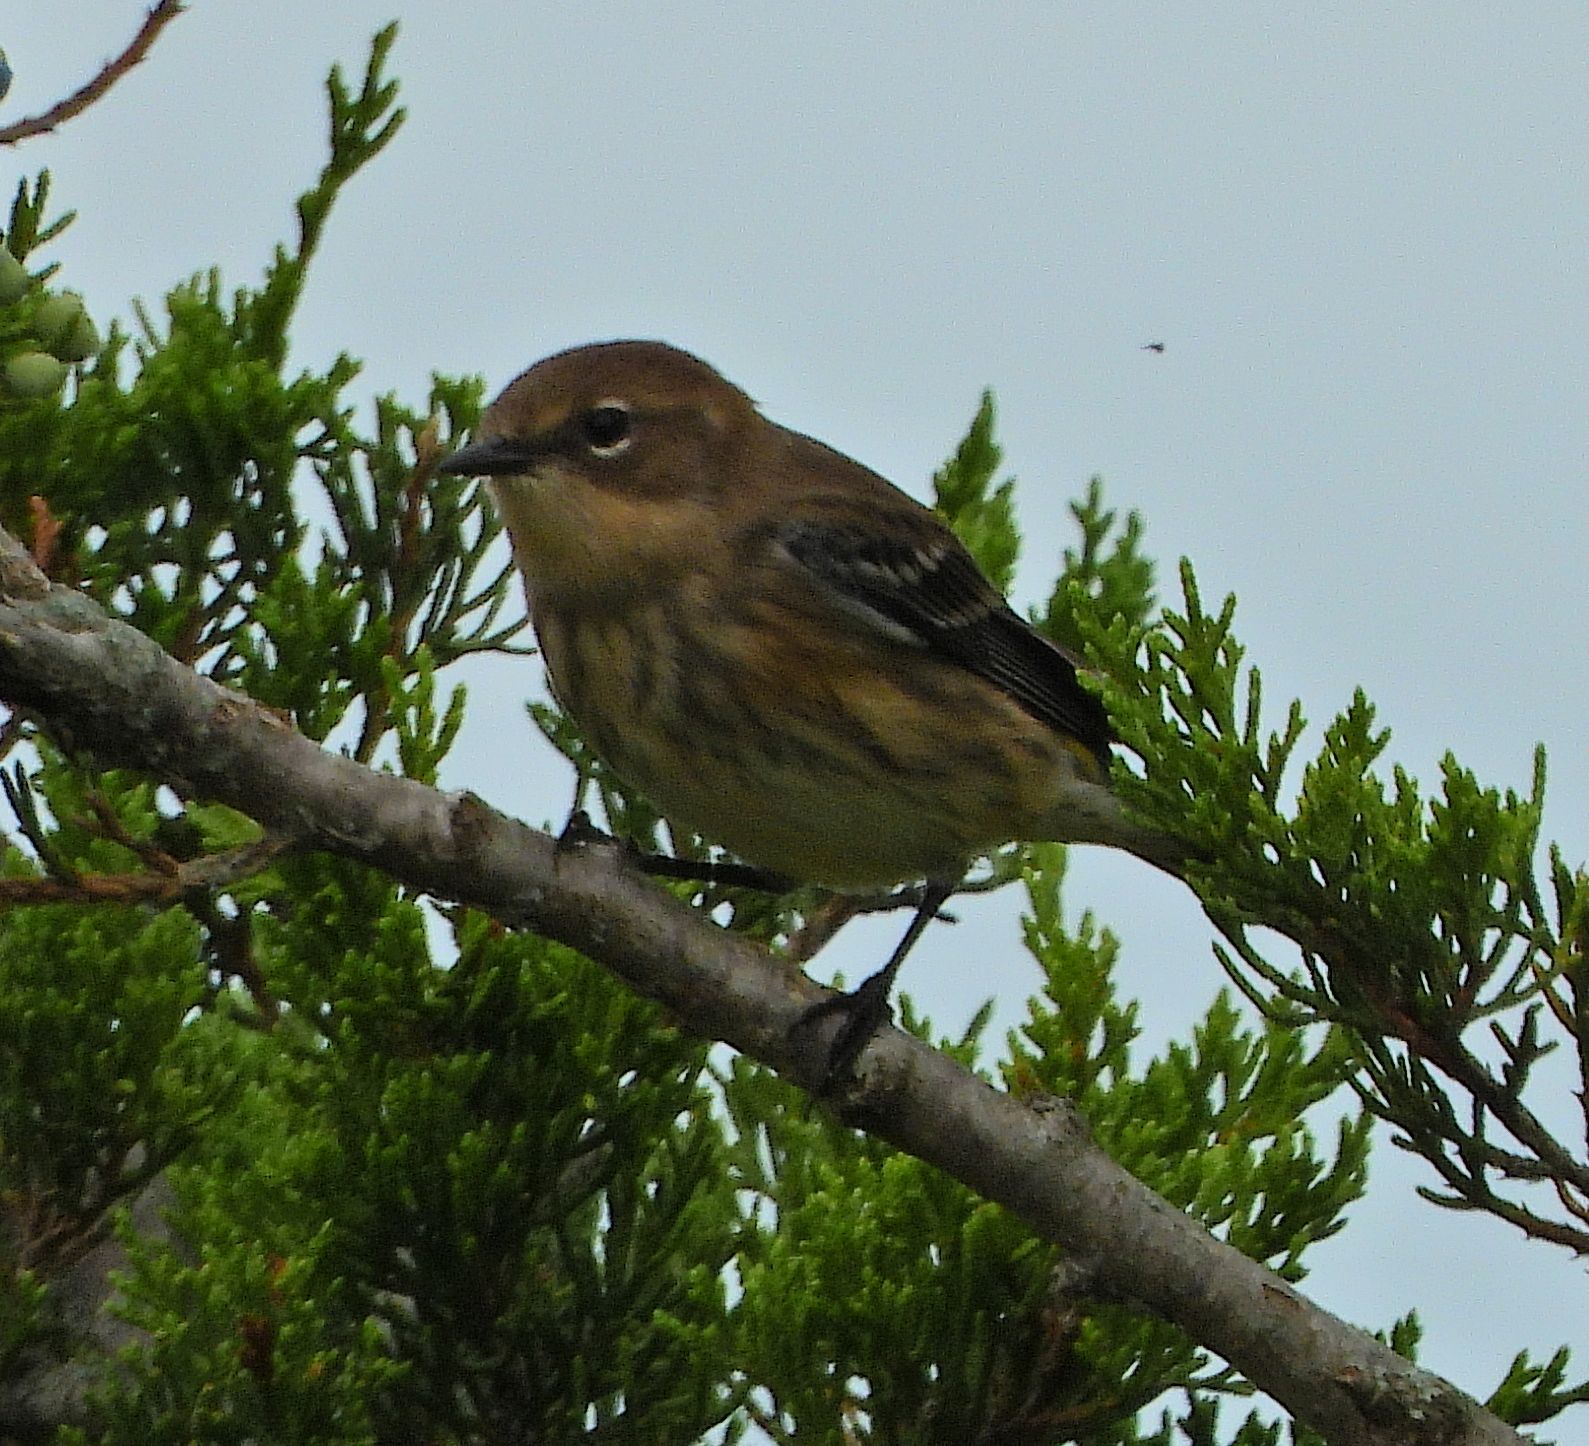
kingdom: Animalia
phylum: Chordata
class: Aves
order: Passeriformes
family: Parulidae
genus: Setophaga
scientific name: Setophaga coronata
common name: Myrtle warbler
